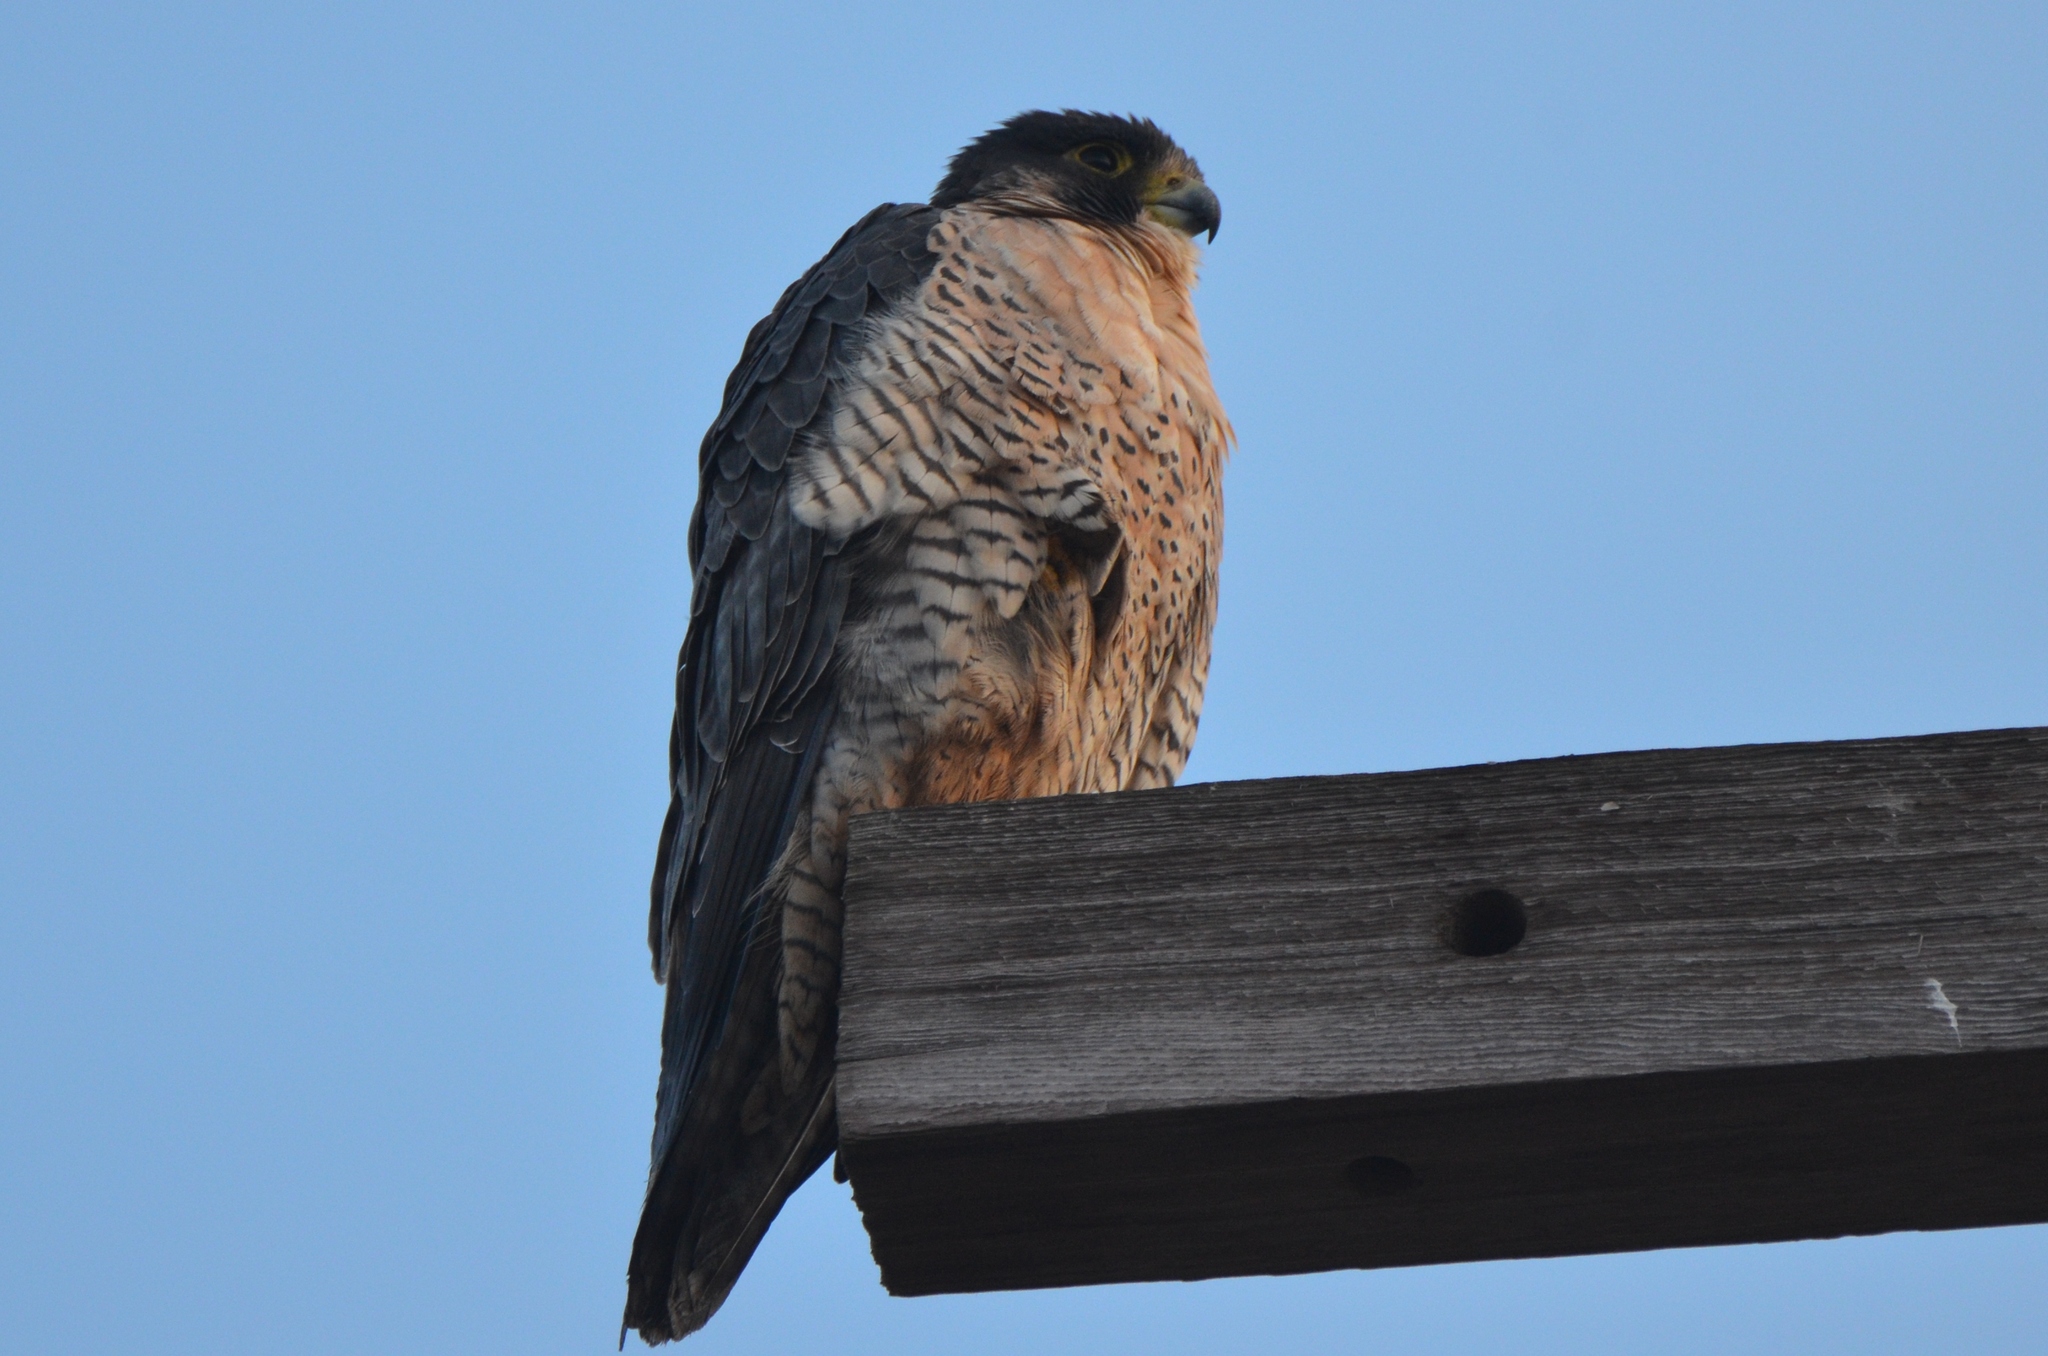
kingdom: Animalia
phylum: Chordata
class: Aves
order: Falconiformes
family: Falconidae
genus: Falco
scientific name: Falco peregrinus
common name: Peregrine falcon
